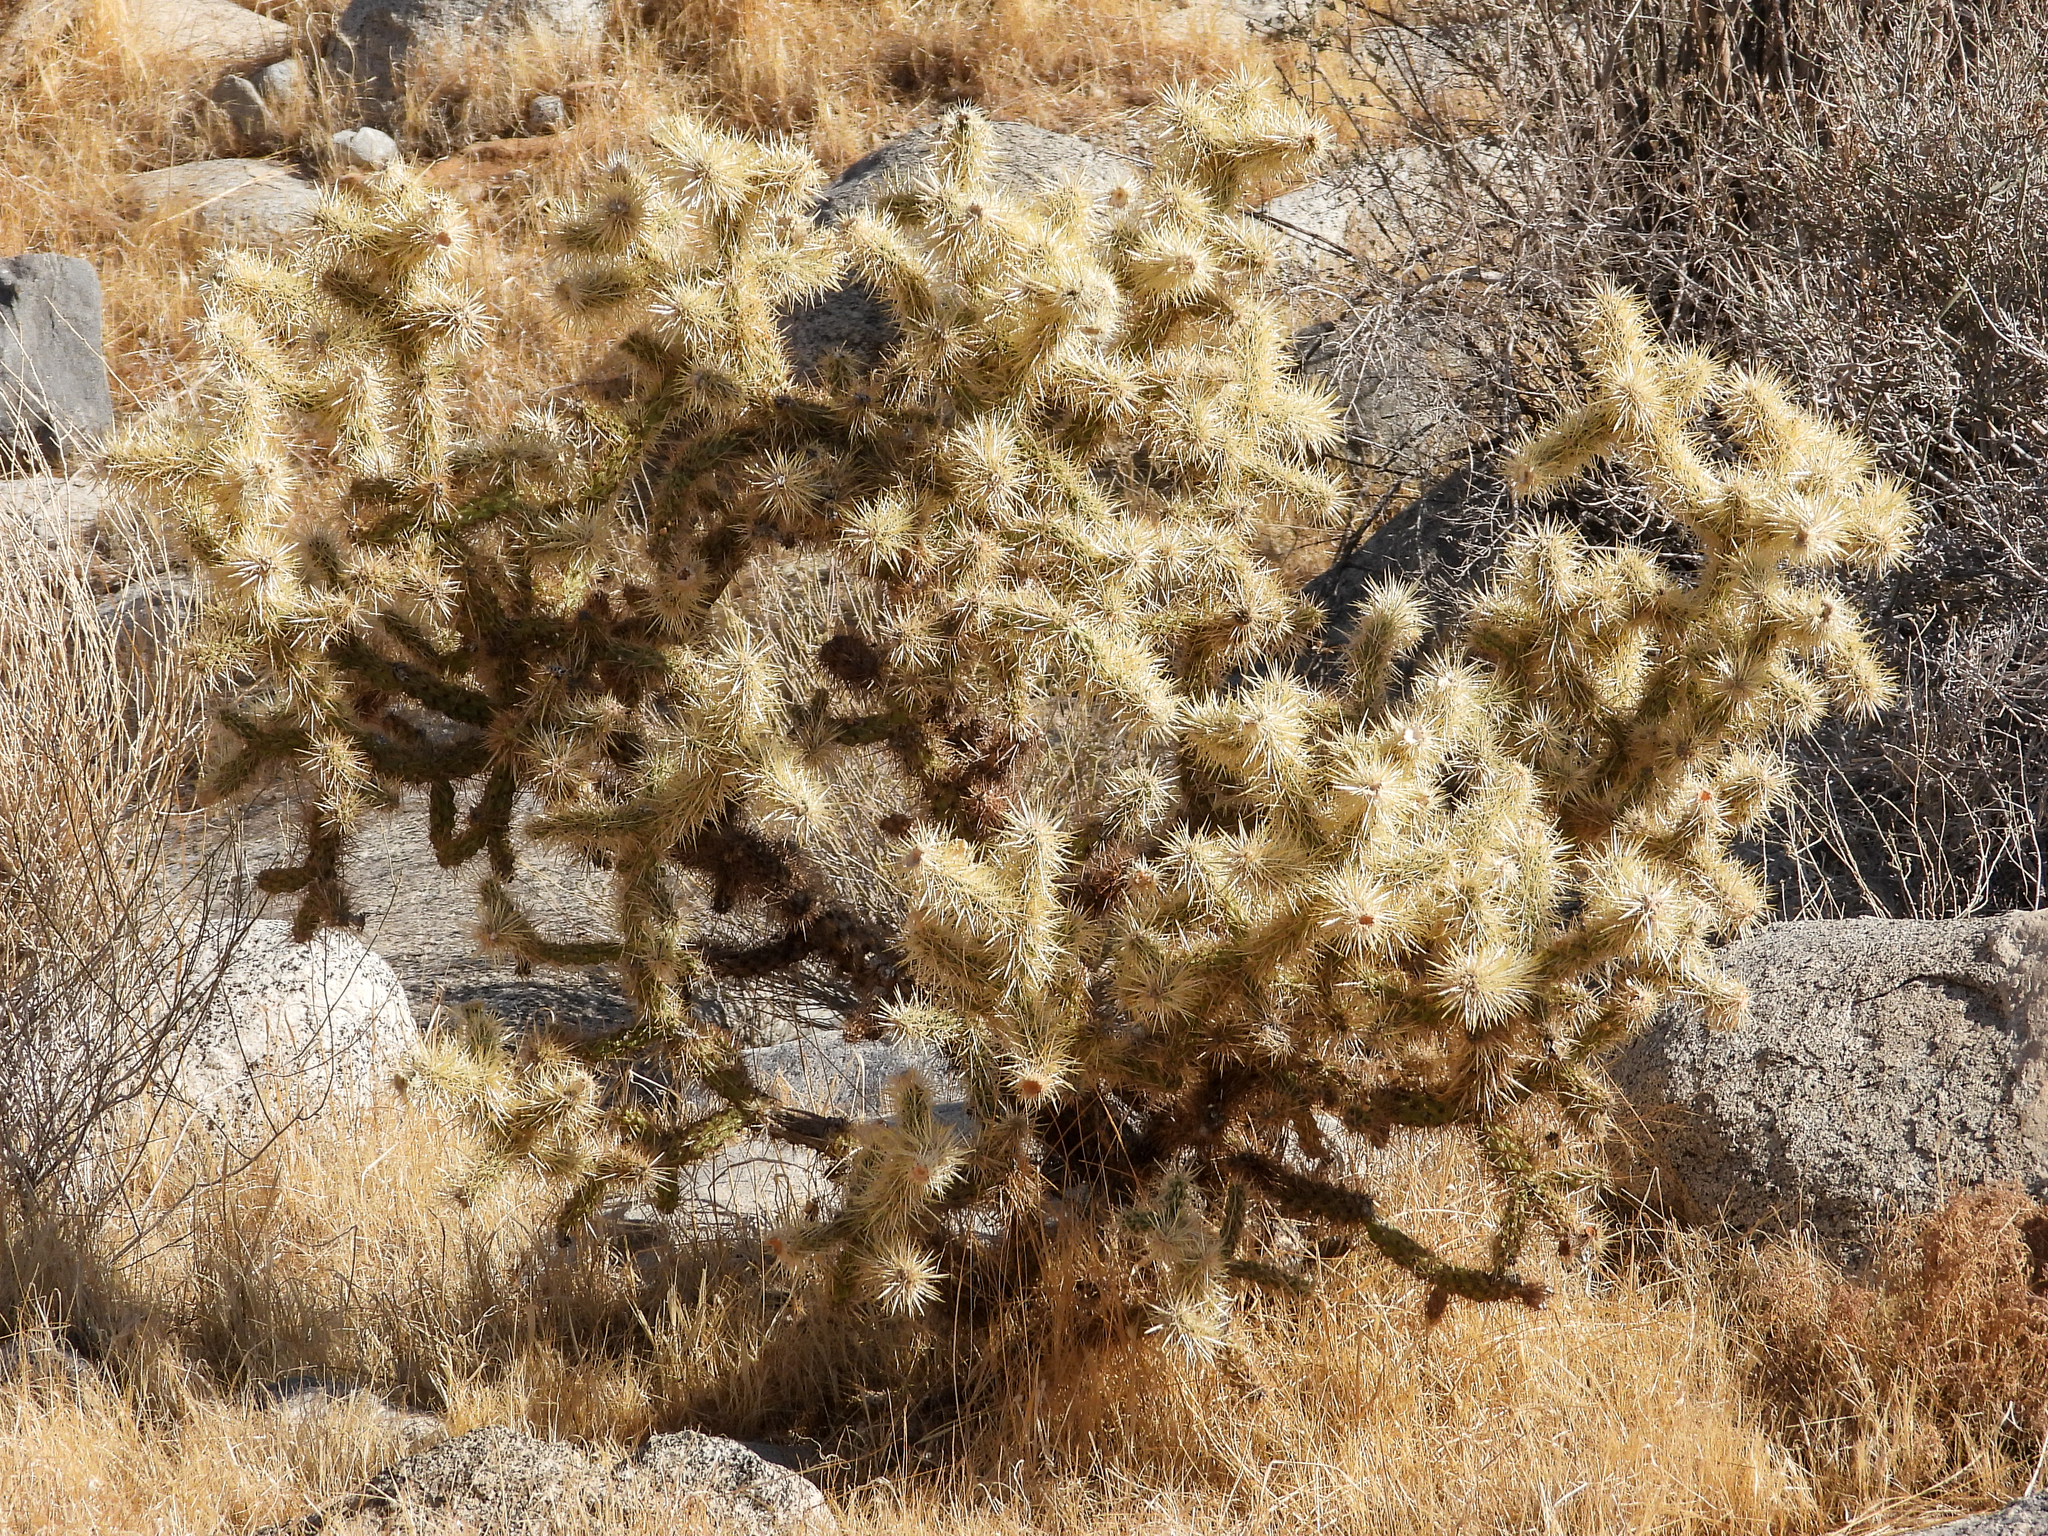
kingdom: Plantae
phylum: Tracheophyta
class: Magnoliopsida
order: Caryophyllales
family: Cactaceae
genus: Cylindropuntia
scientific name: Cylindropuntia echinocarpa
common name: Ground cholla
